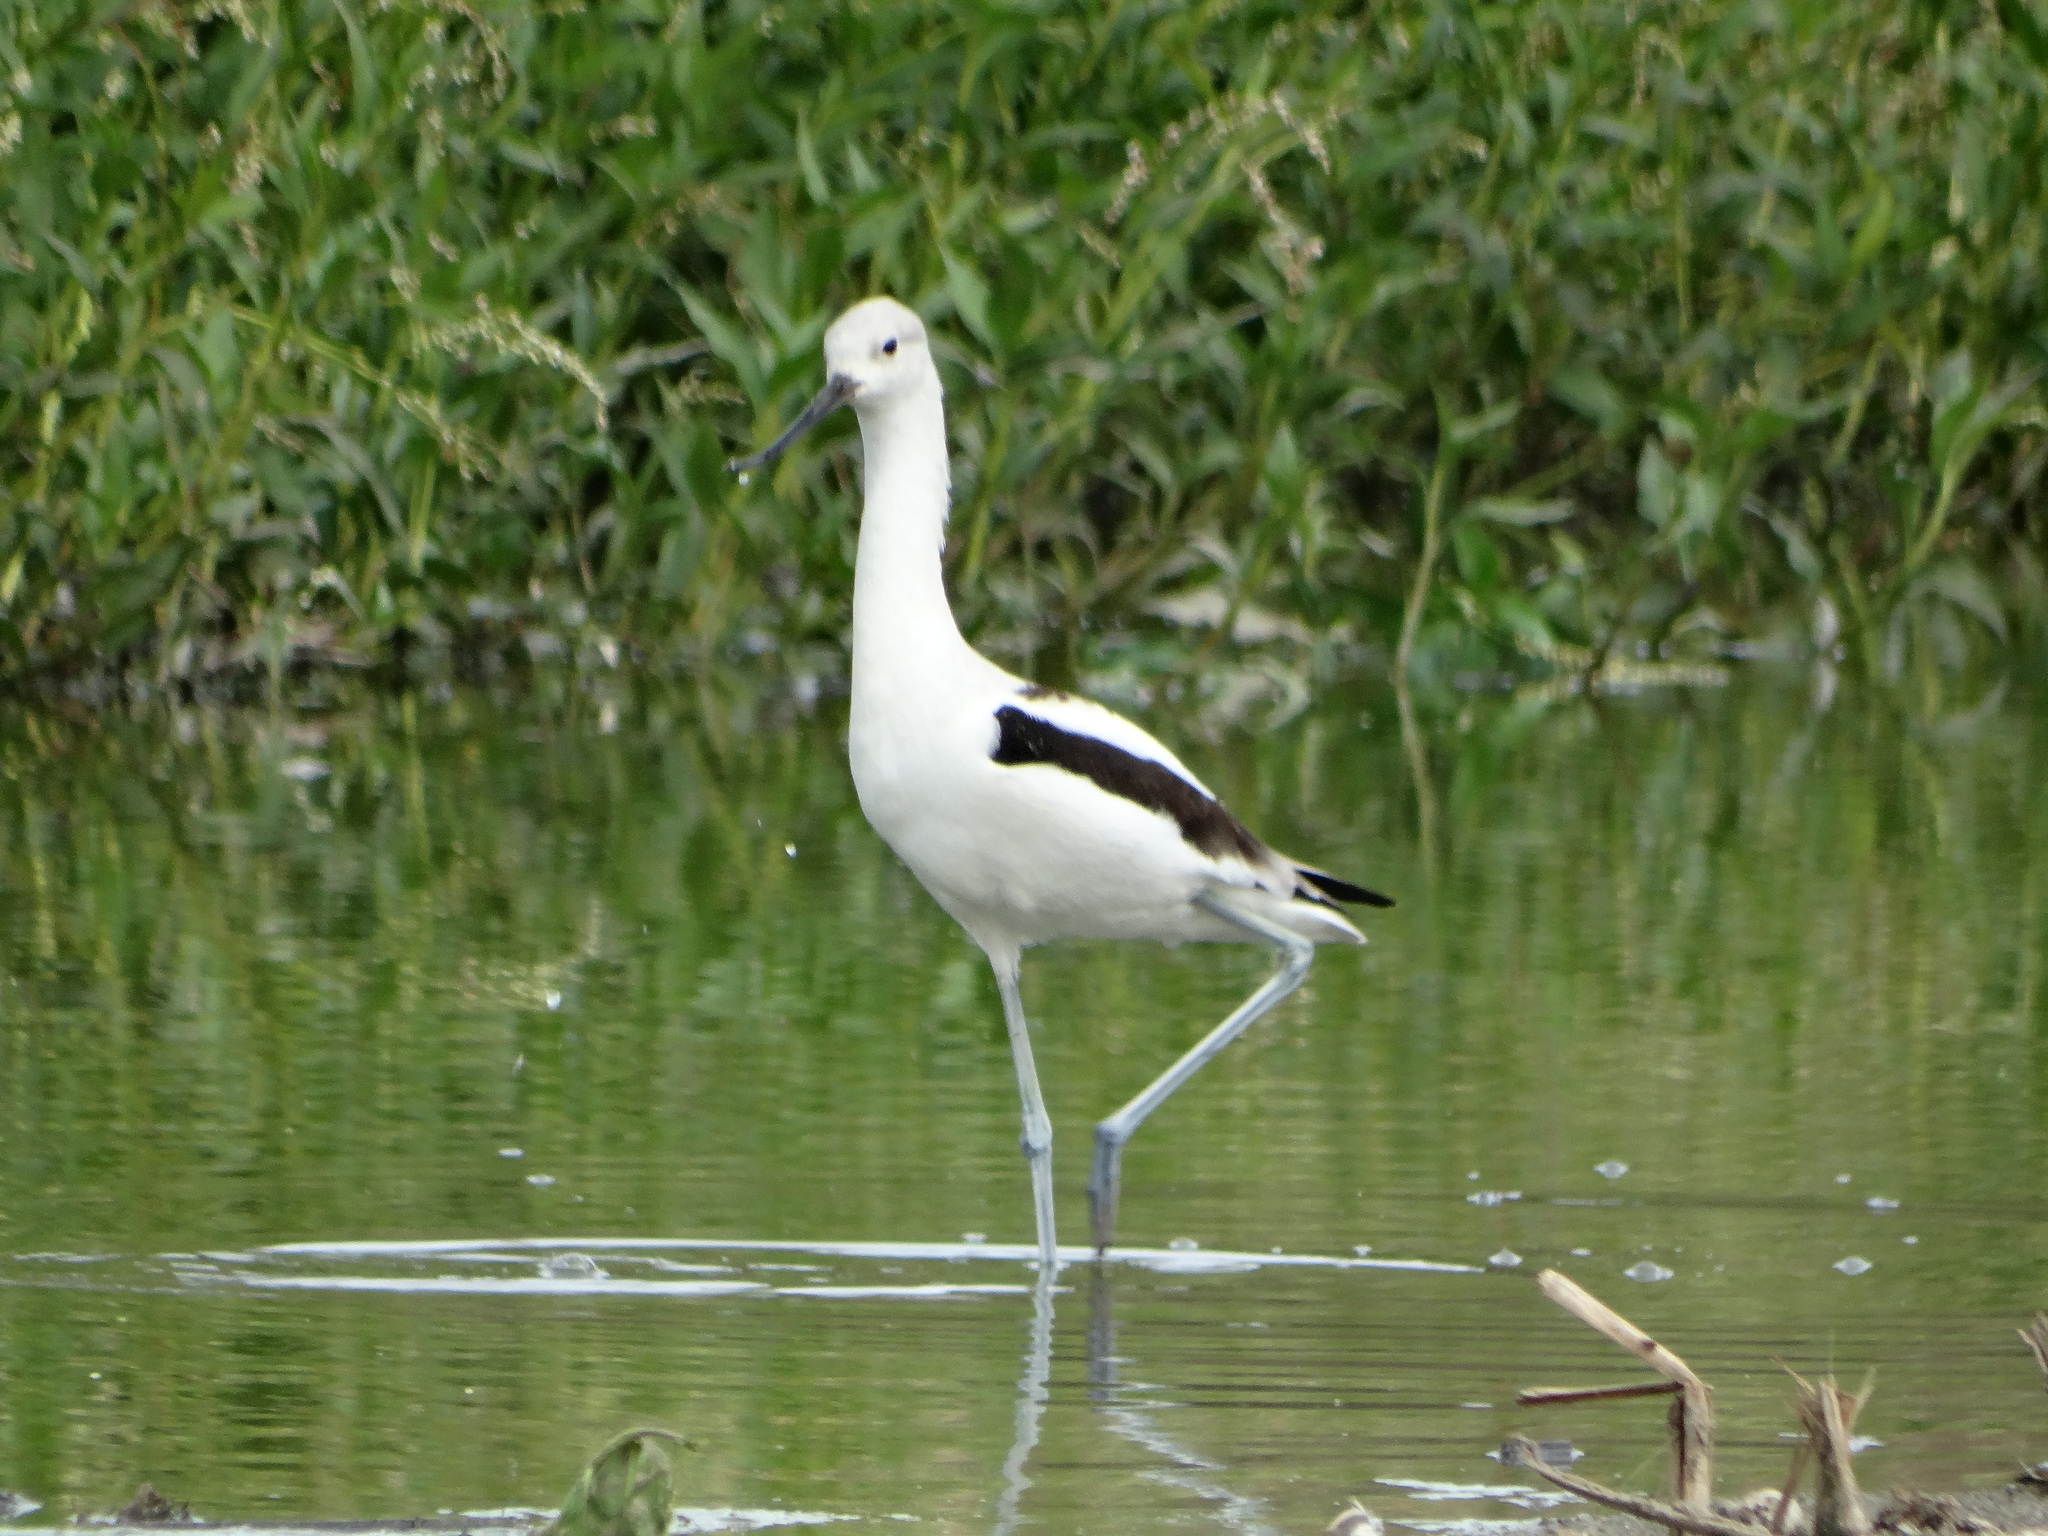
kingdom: Animalia
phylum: Chordata
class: Aves
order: Charadriiformes
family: Recurvirostridae
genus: Recurvirostra
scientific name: Recurvirostra americana
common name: American avocet
